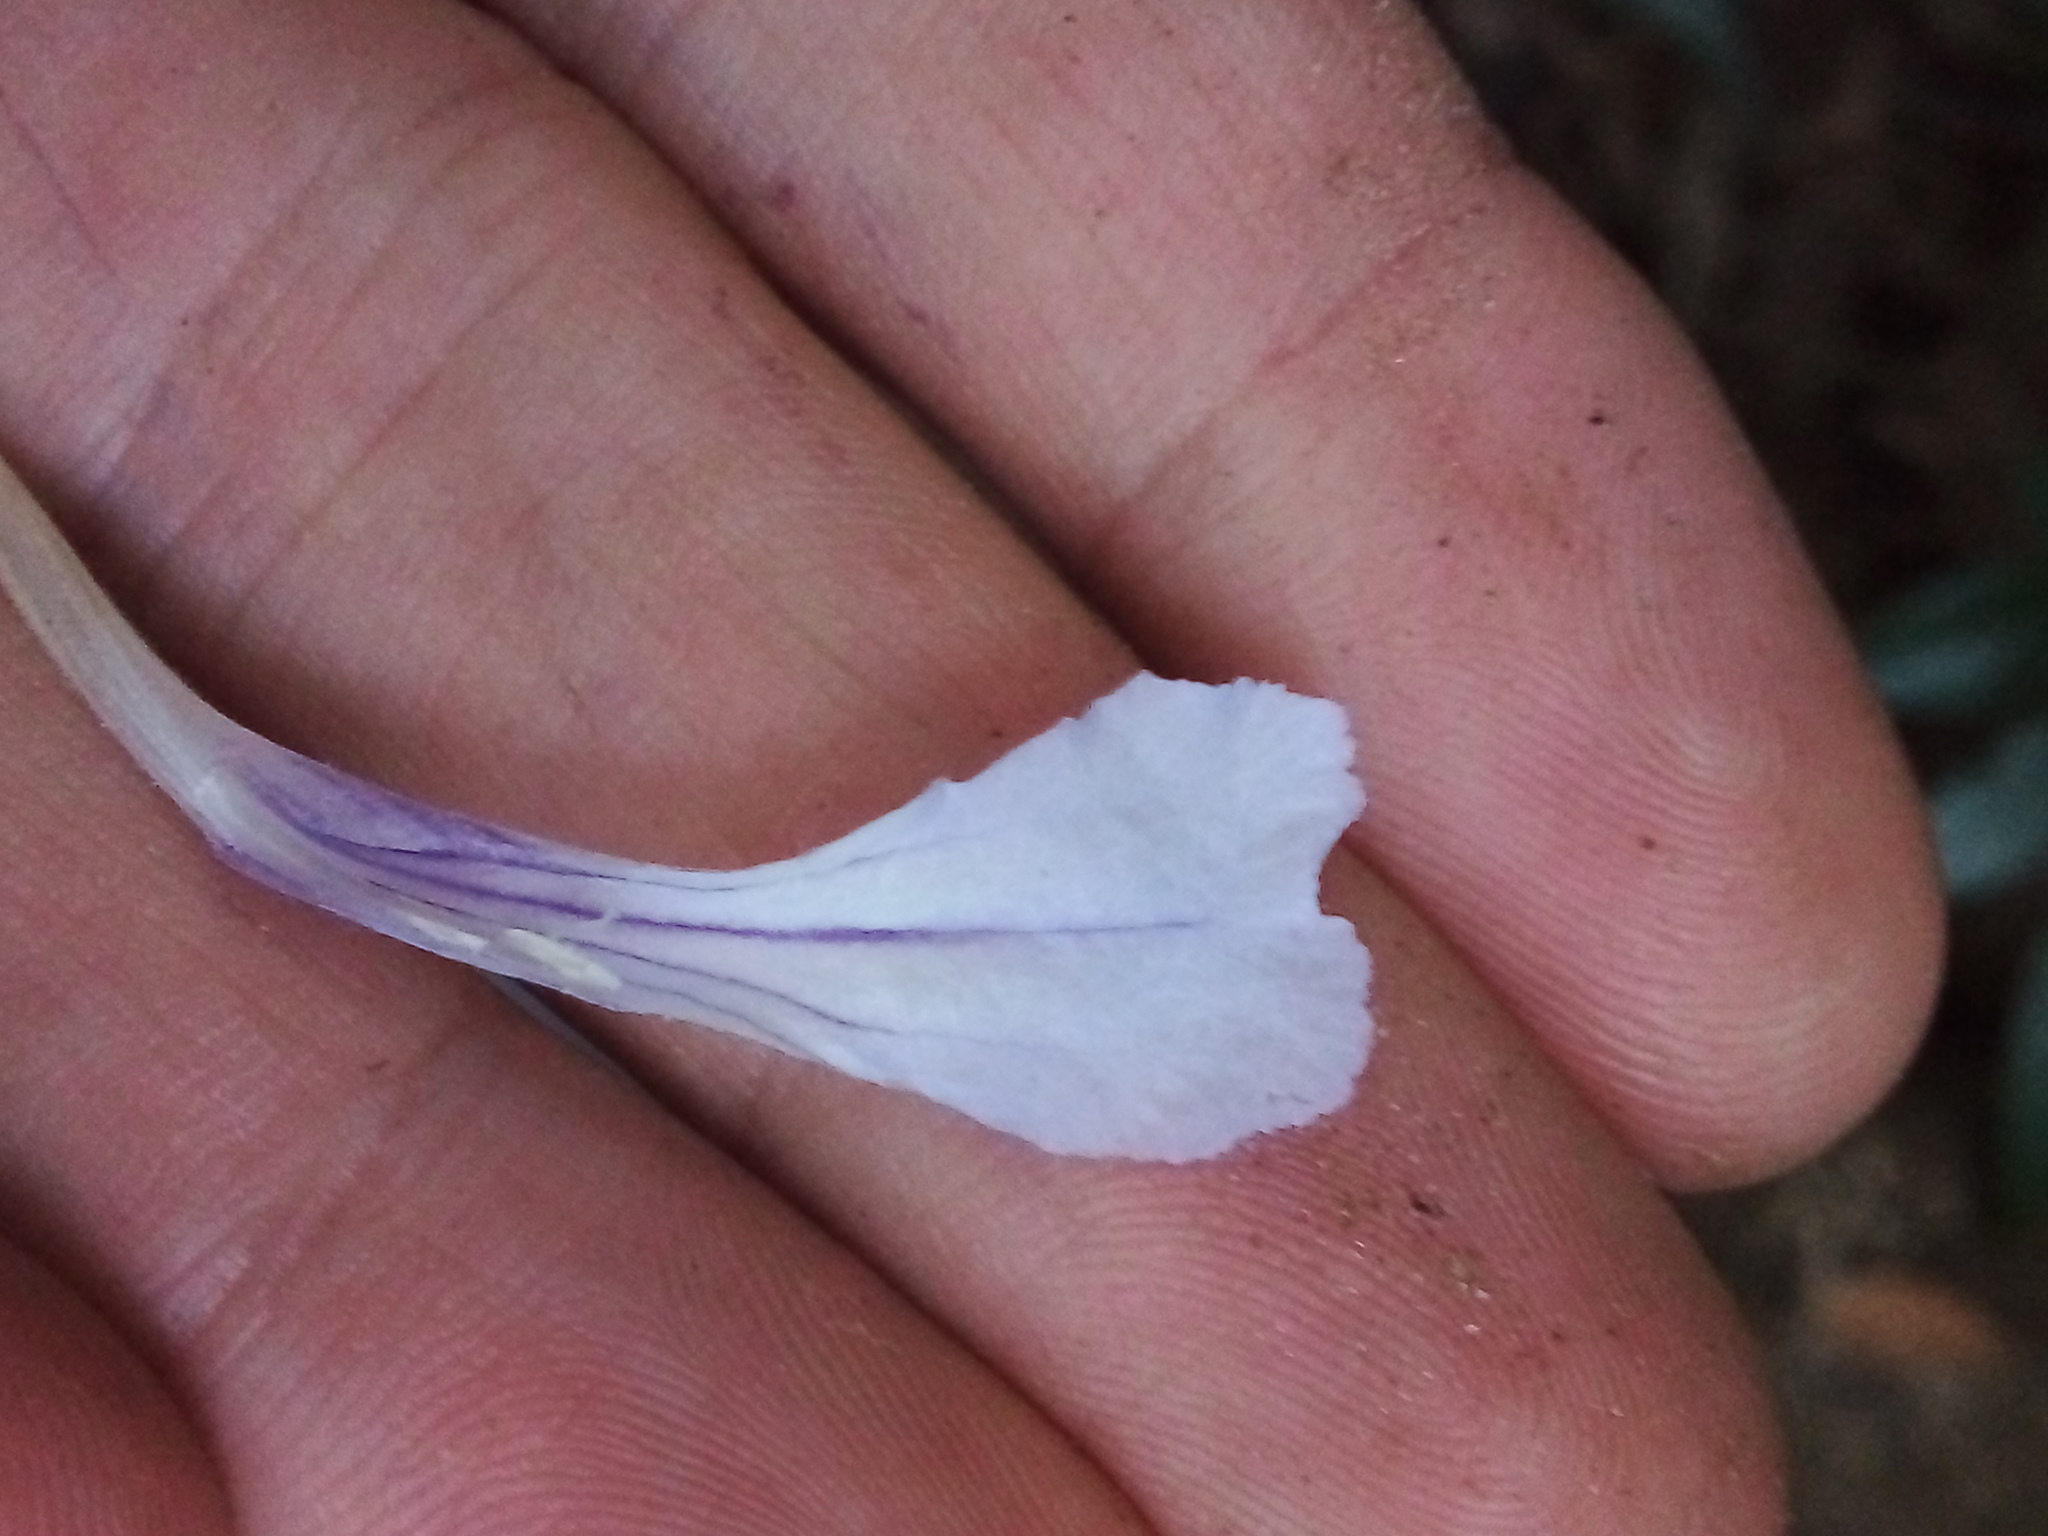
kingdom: Plantae
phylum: Tracheophyta
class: Magnoliopsida
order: Lamiales
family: Acanthaceae
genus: Ruellia
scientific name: Ruellia solitaria
